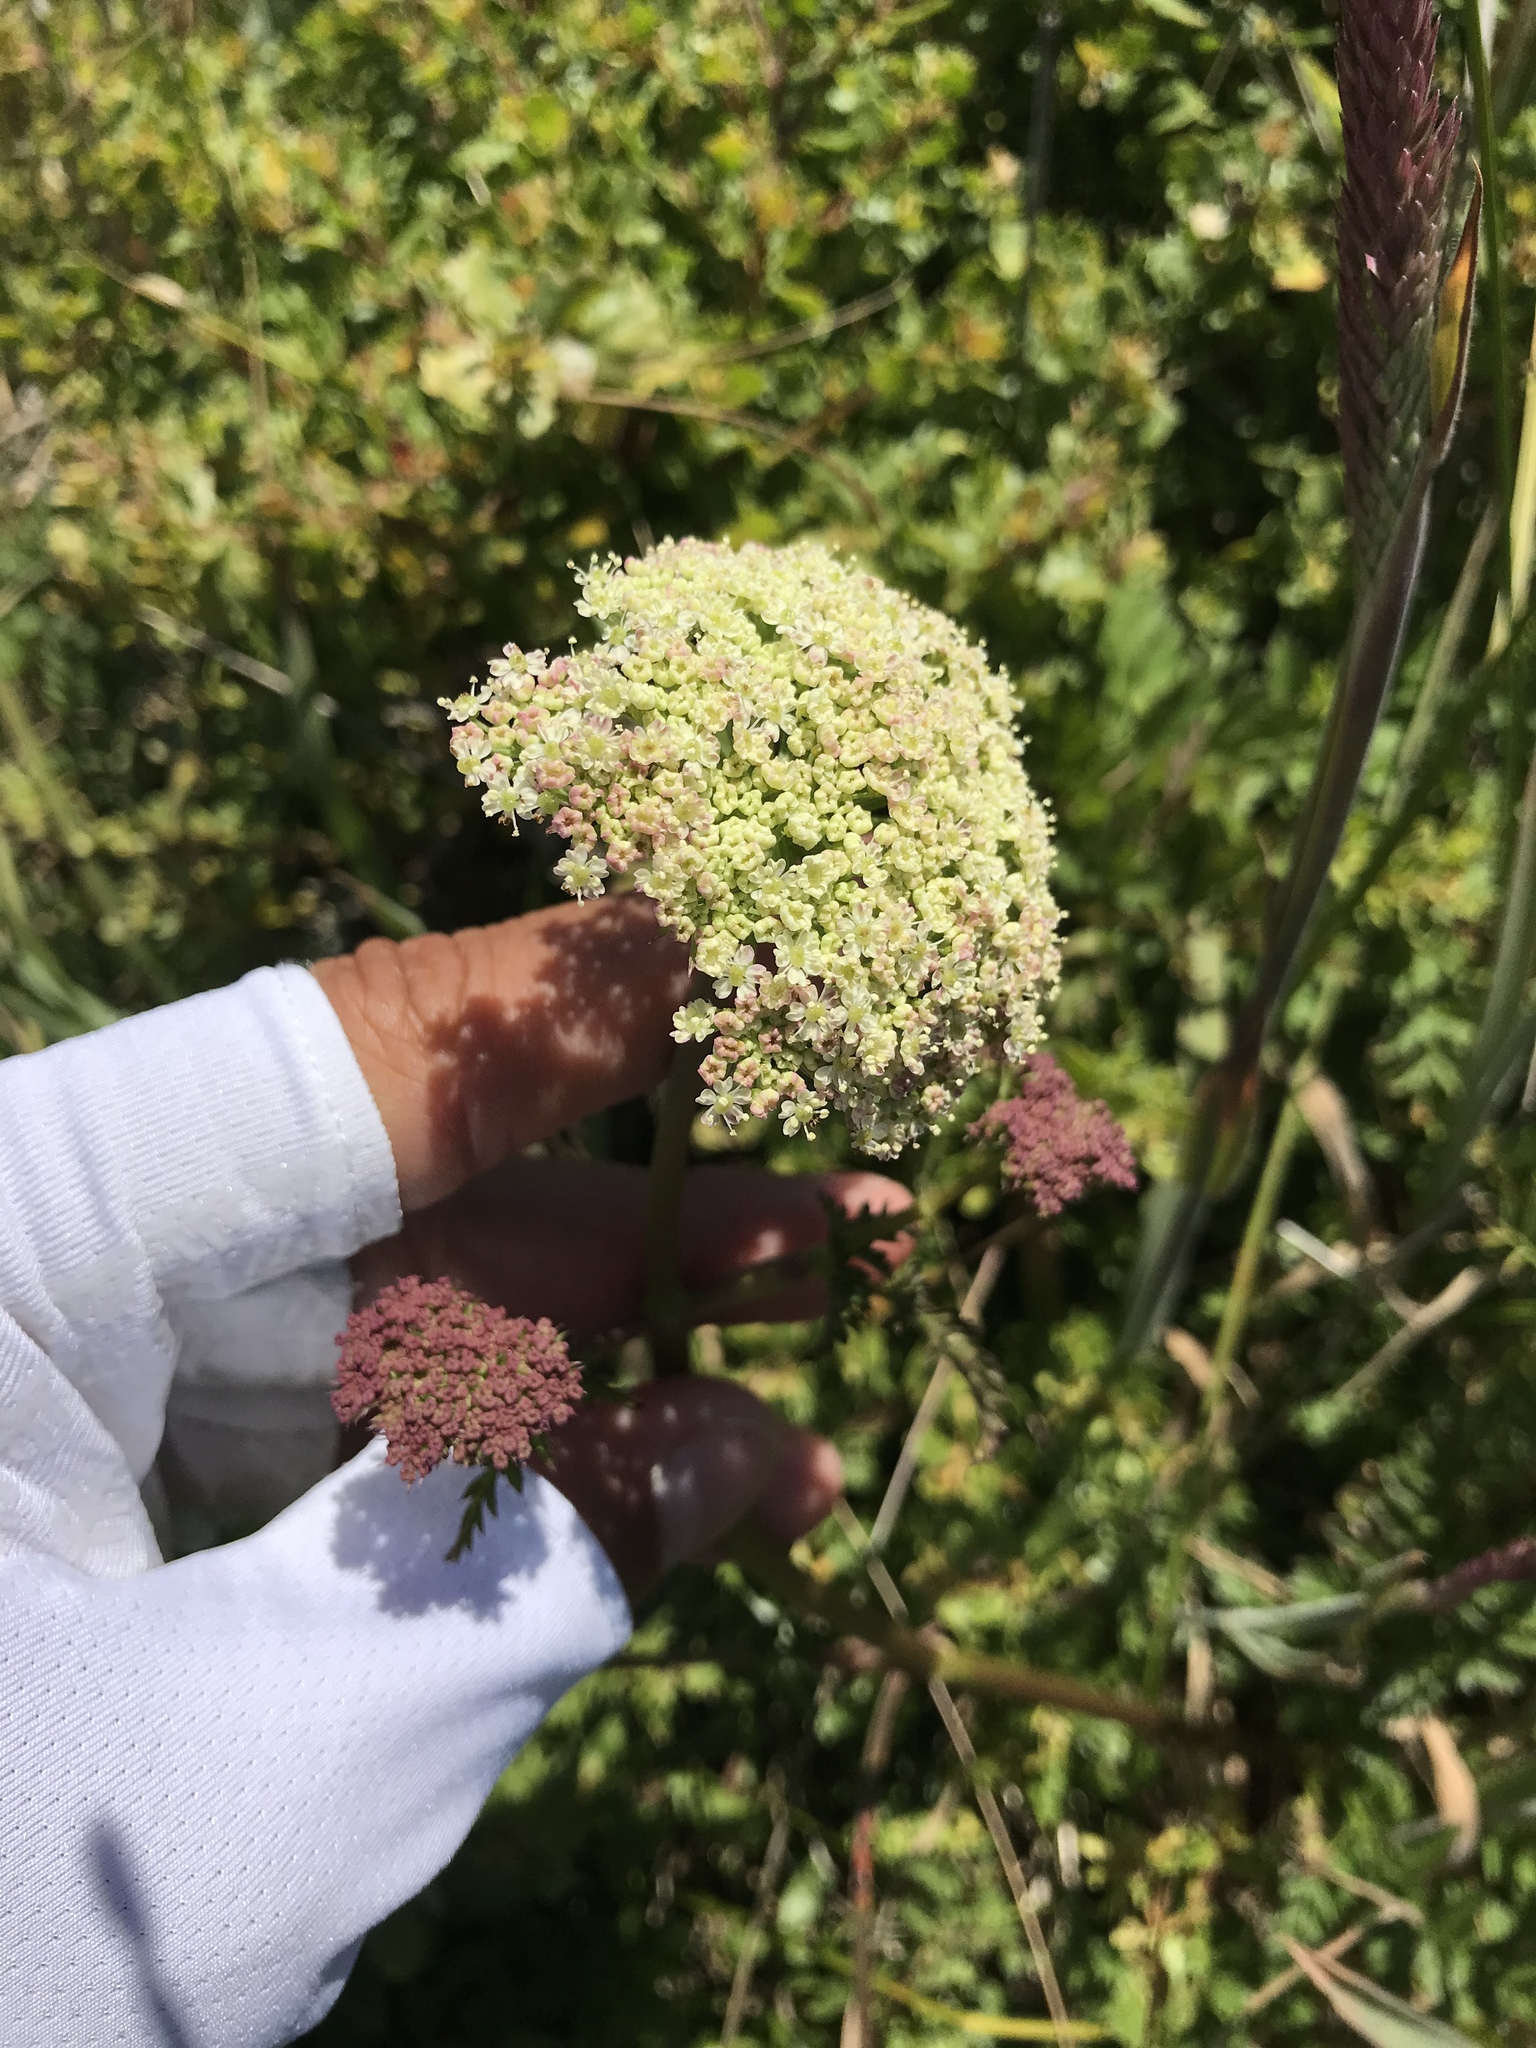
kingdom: Plantae
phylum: Tracheophyta
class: Magnoliopsida
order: Apiales
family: Apiaceae
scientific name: Apiaceae
